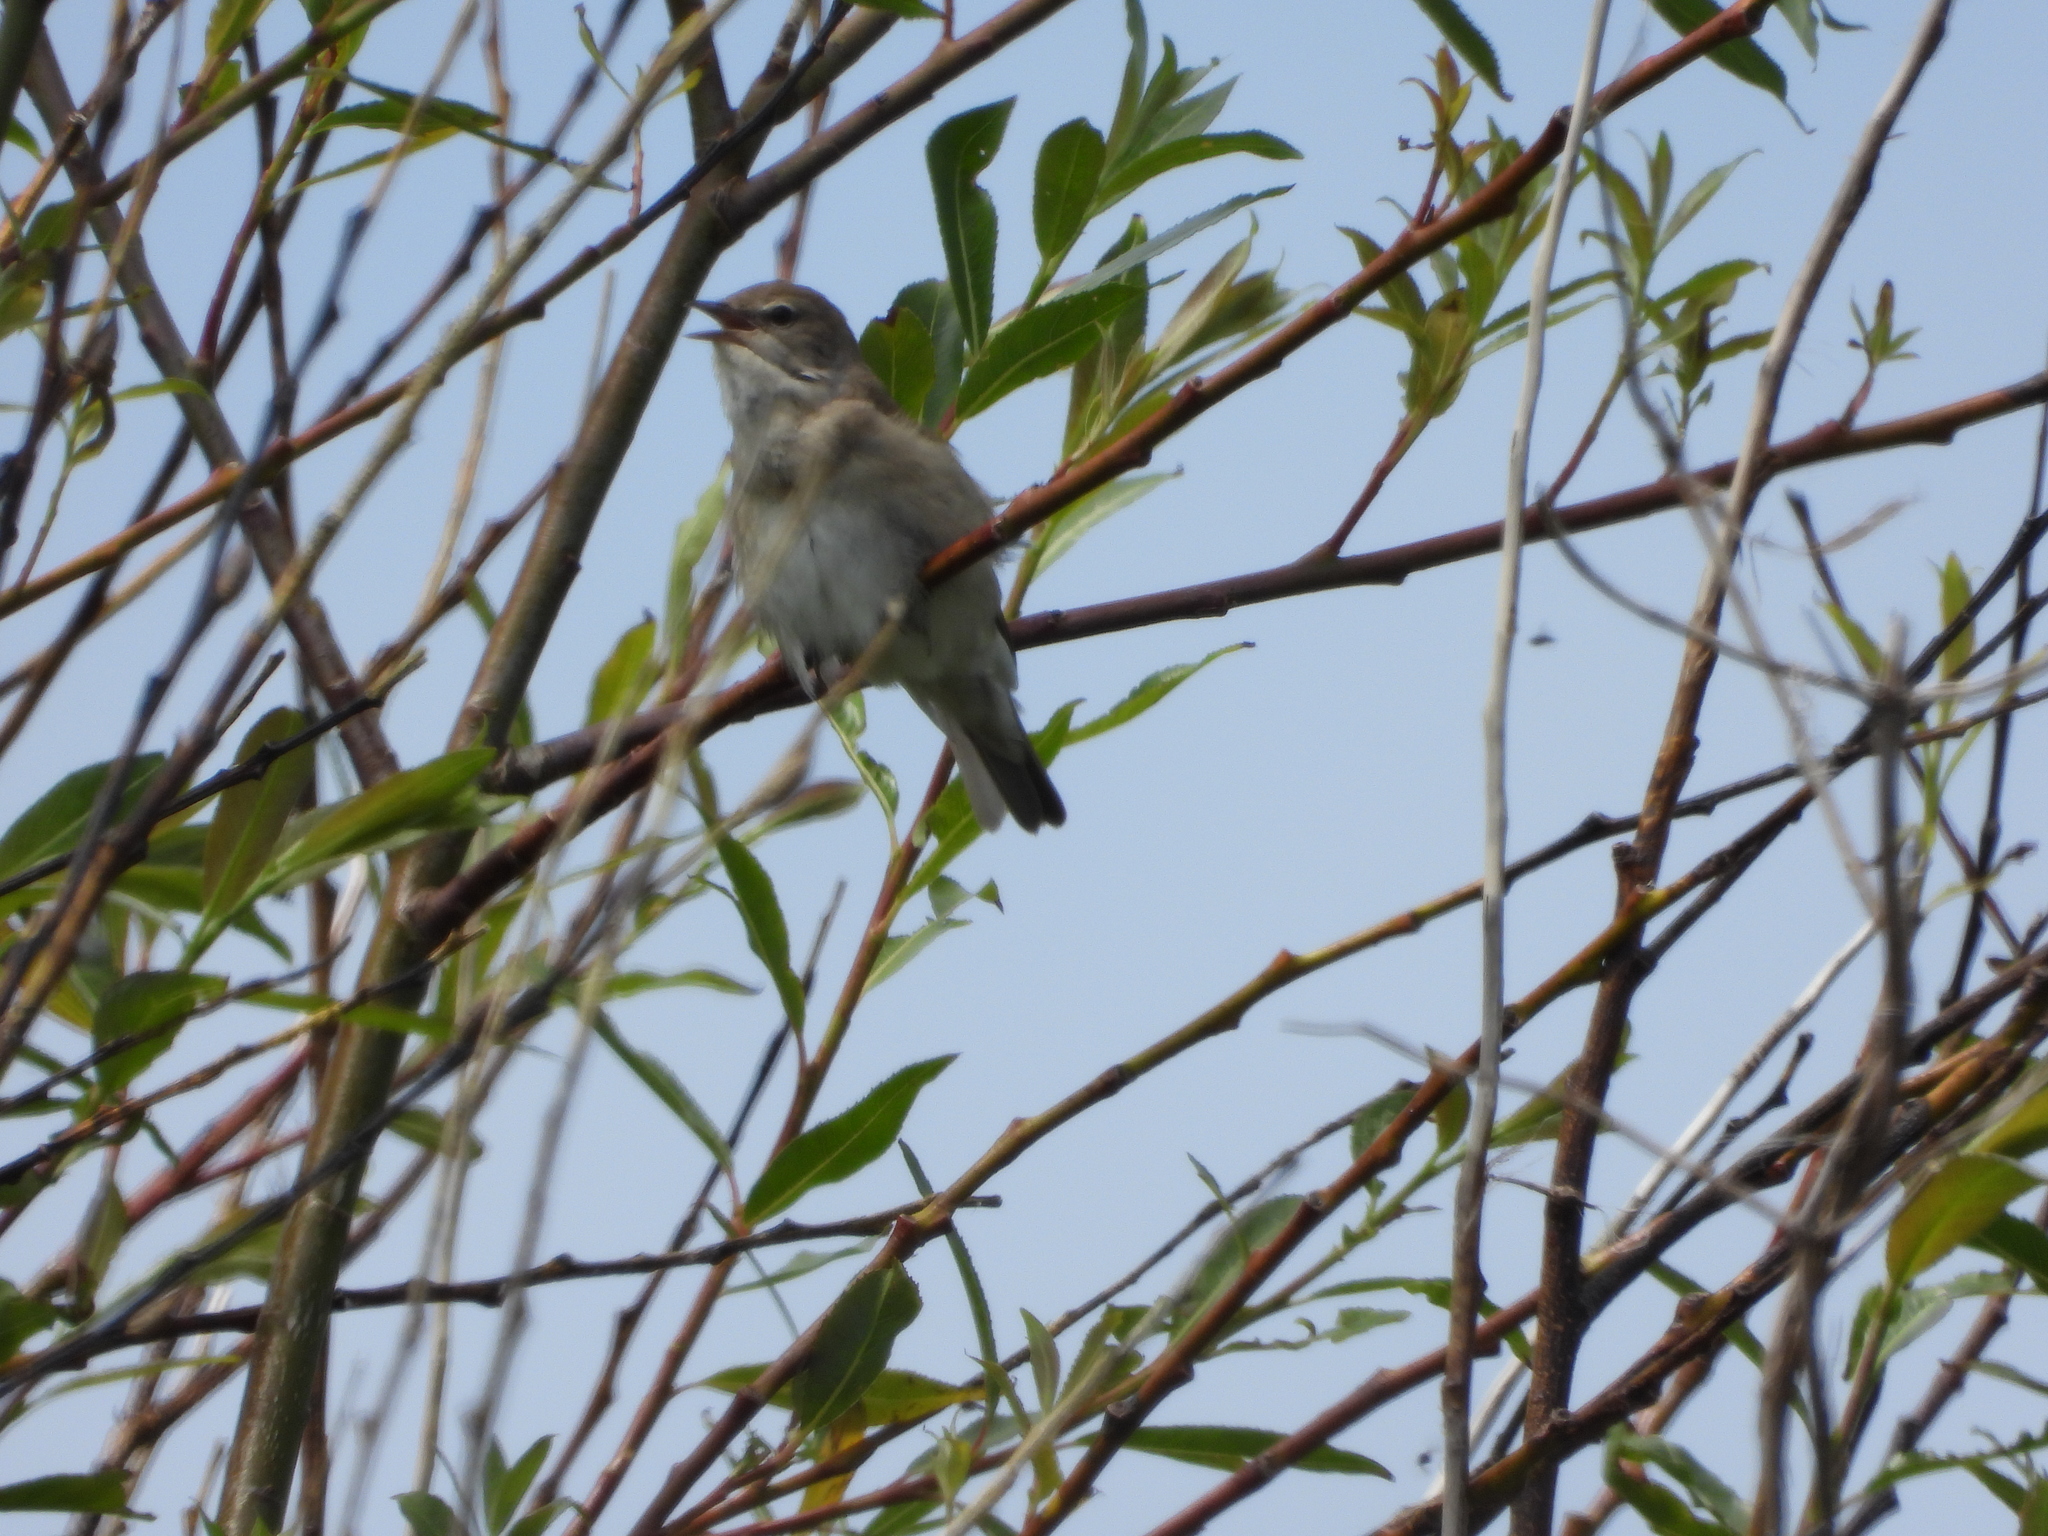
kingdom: Animalia
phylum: Chordata
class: Aves
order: Passeriformes
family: Sylviidae
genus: Sylvia
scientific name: Sylvia borin
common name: Garden warbler
